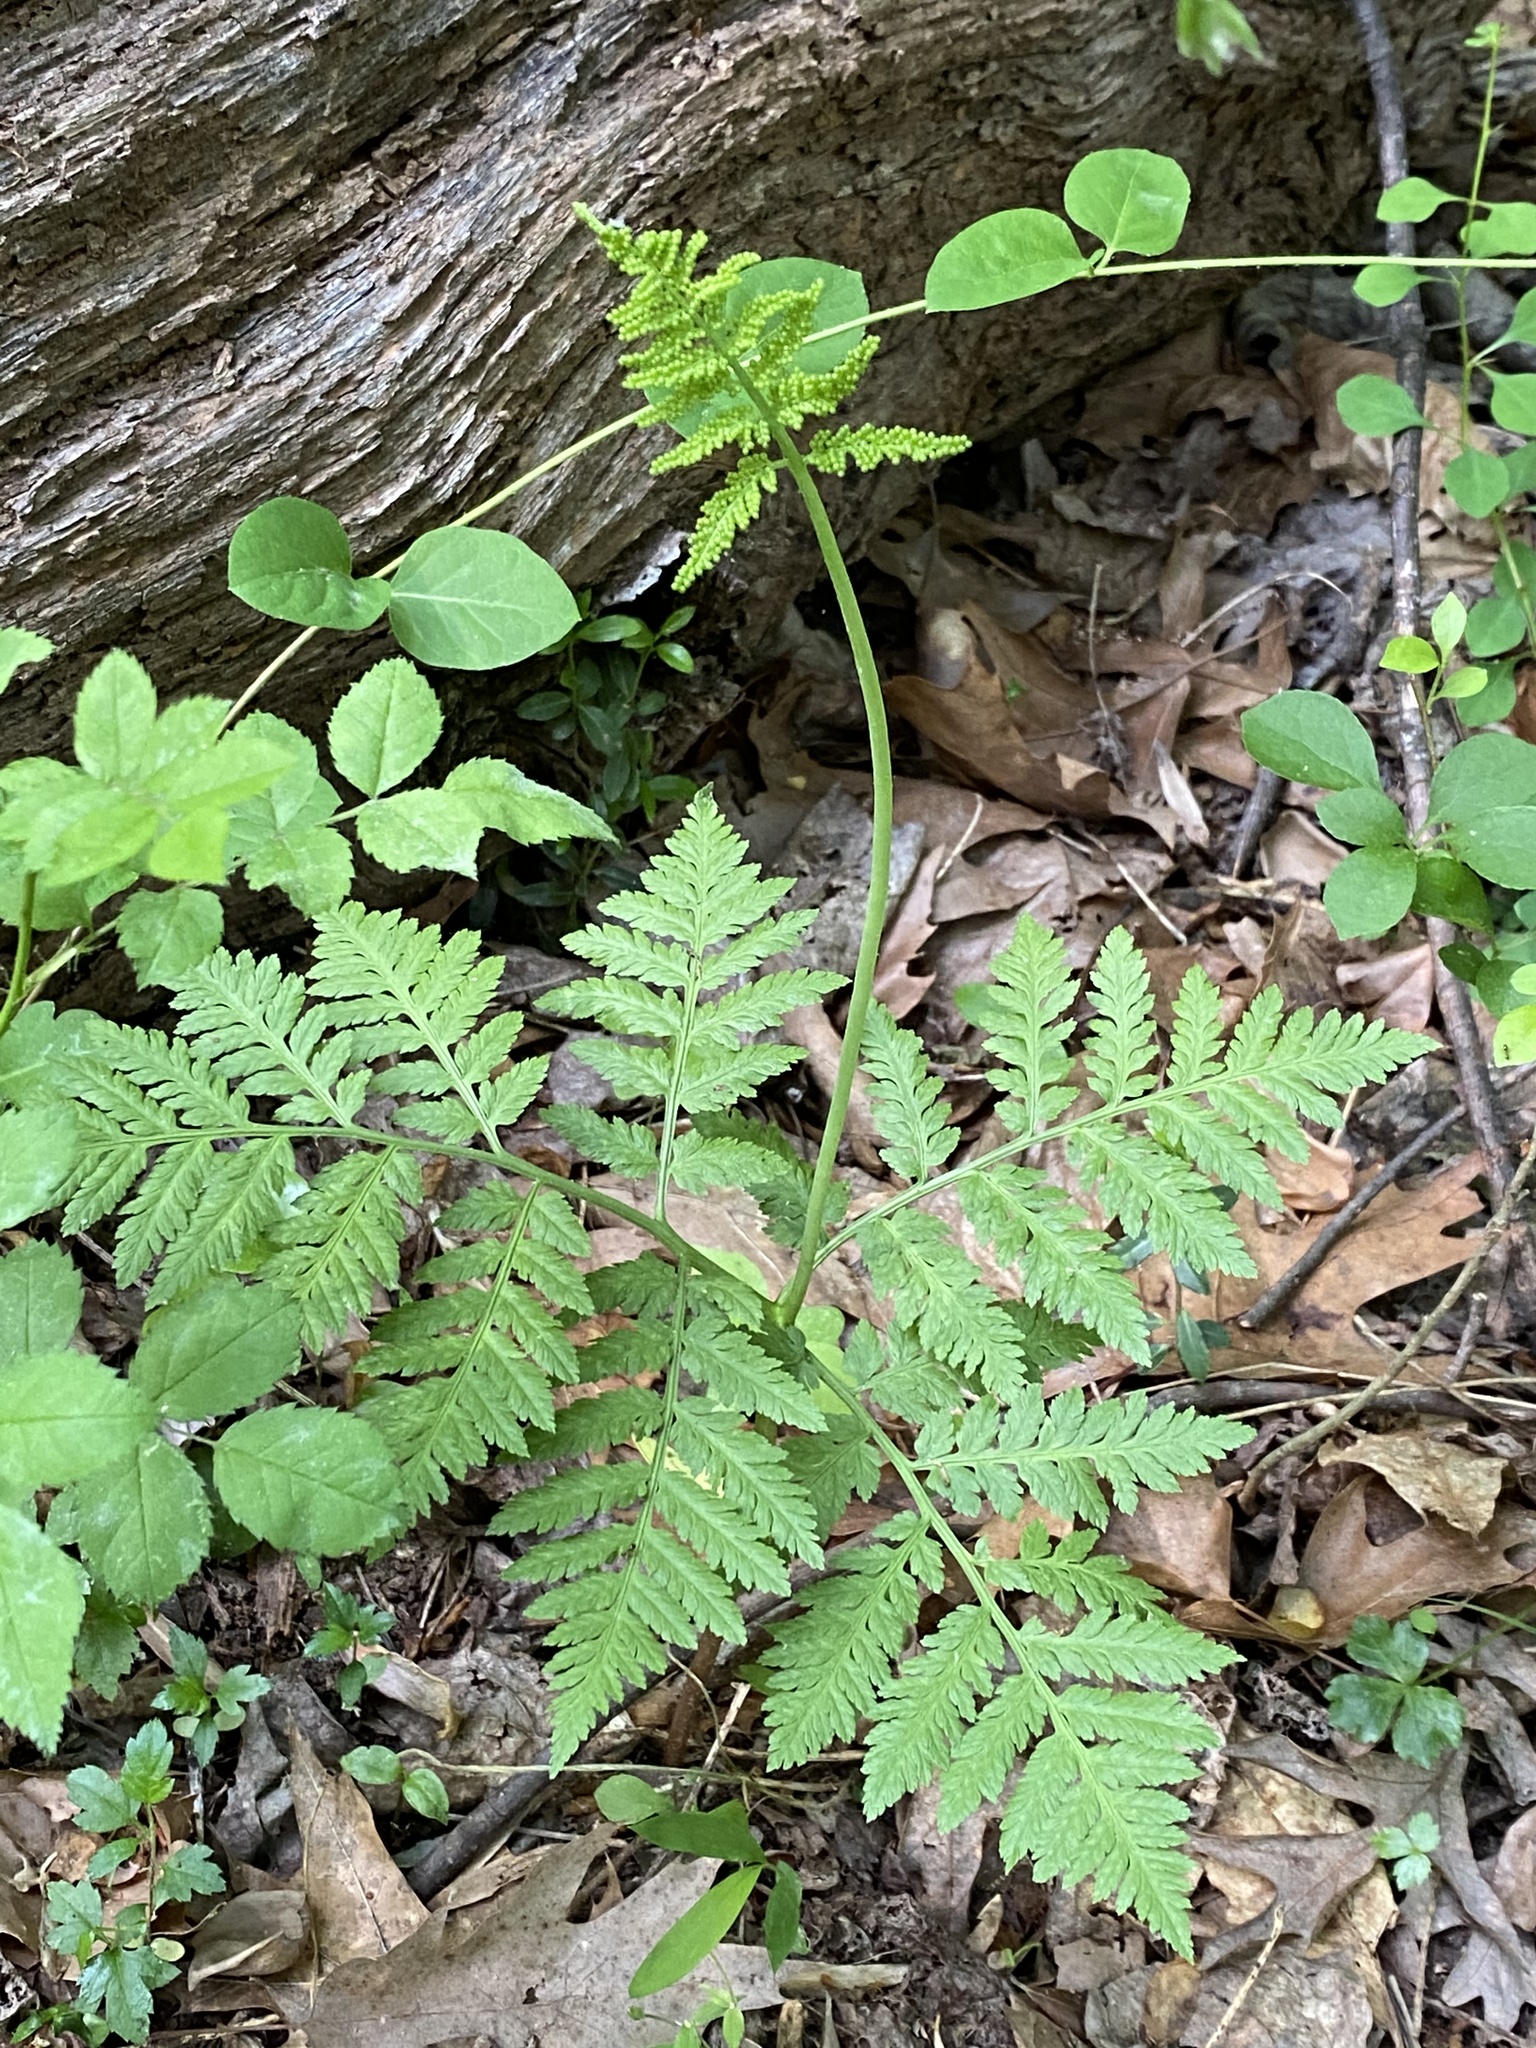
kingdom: Plantae
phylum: Tracheophyta
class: Polypodiopsida
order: Ophioglossales
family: Ophioglossaceae
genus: Botrypus
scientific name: Botrypus virginianus
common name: Common grapefern
